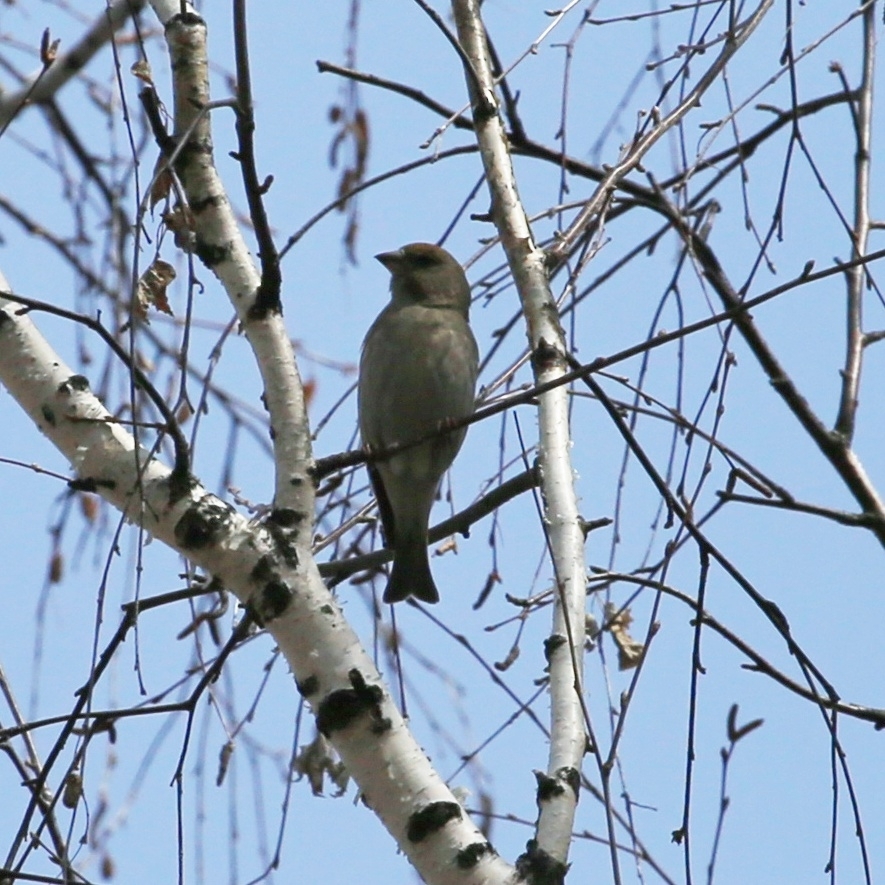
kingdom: Plantae
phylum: Tracheophyta
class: Liliopsida
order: Poales
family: Poaceae
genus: Chloris
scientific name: Chloris chloris
